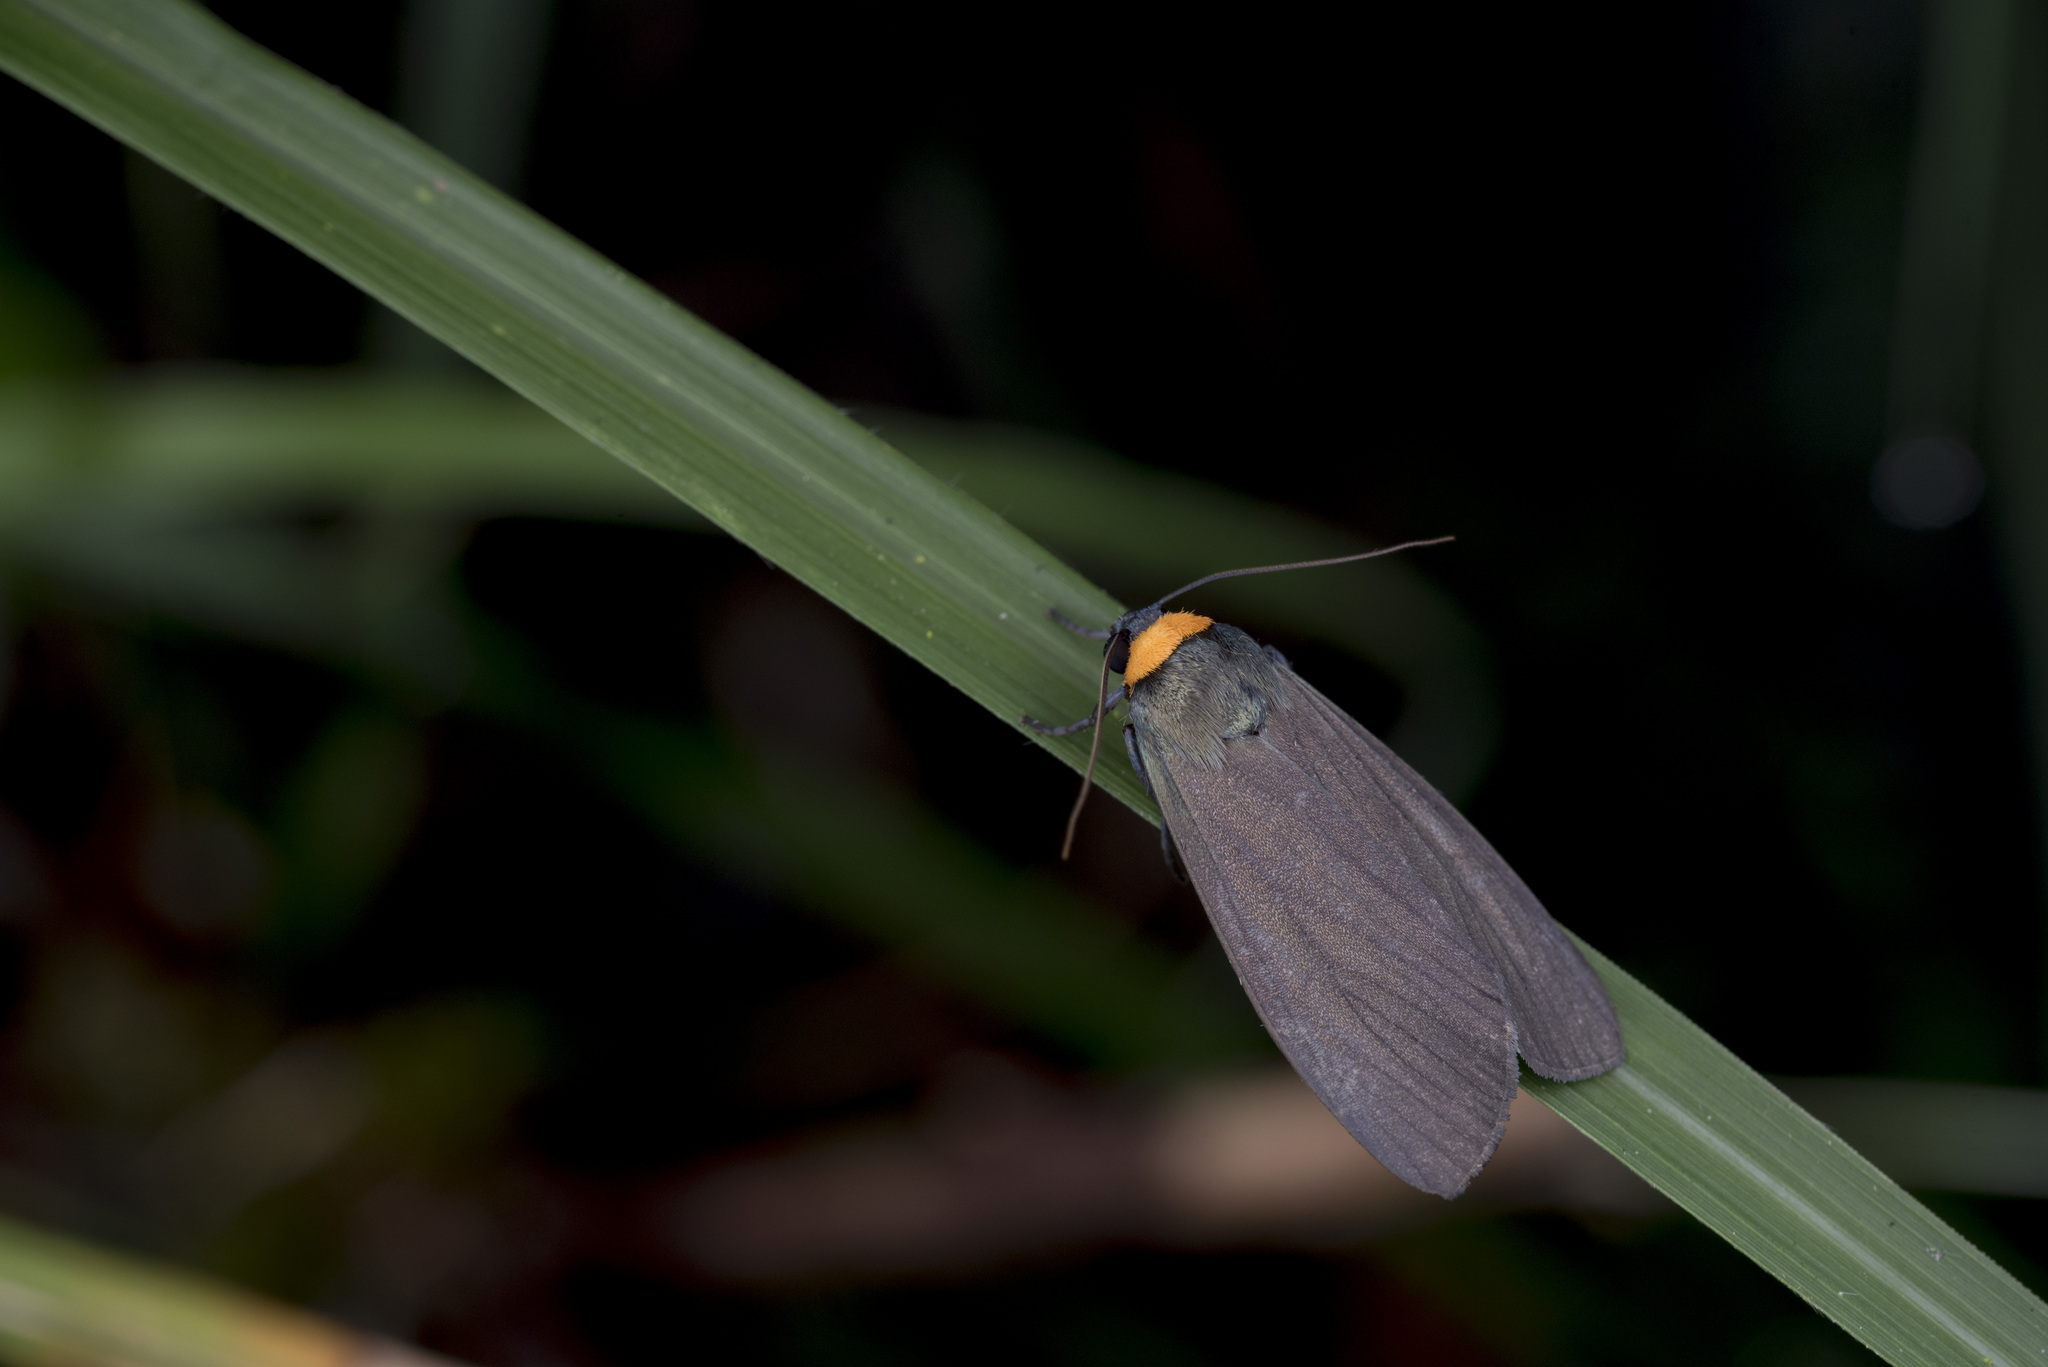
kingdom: Animalia
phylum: Arthropoda
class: Insecta
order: Lepidoptera
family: Erebidae
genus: Macrobrochis
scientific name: Macrobrochis staudingeri
